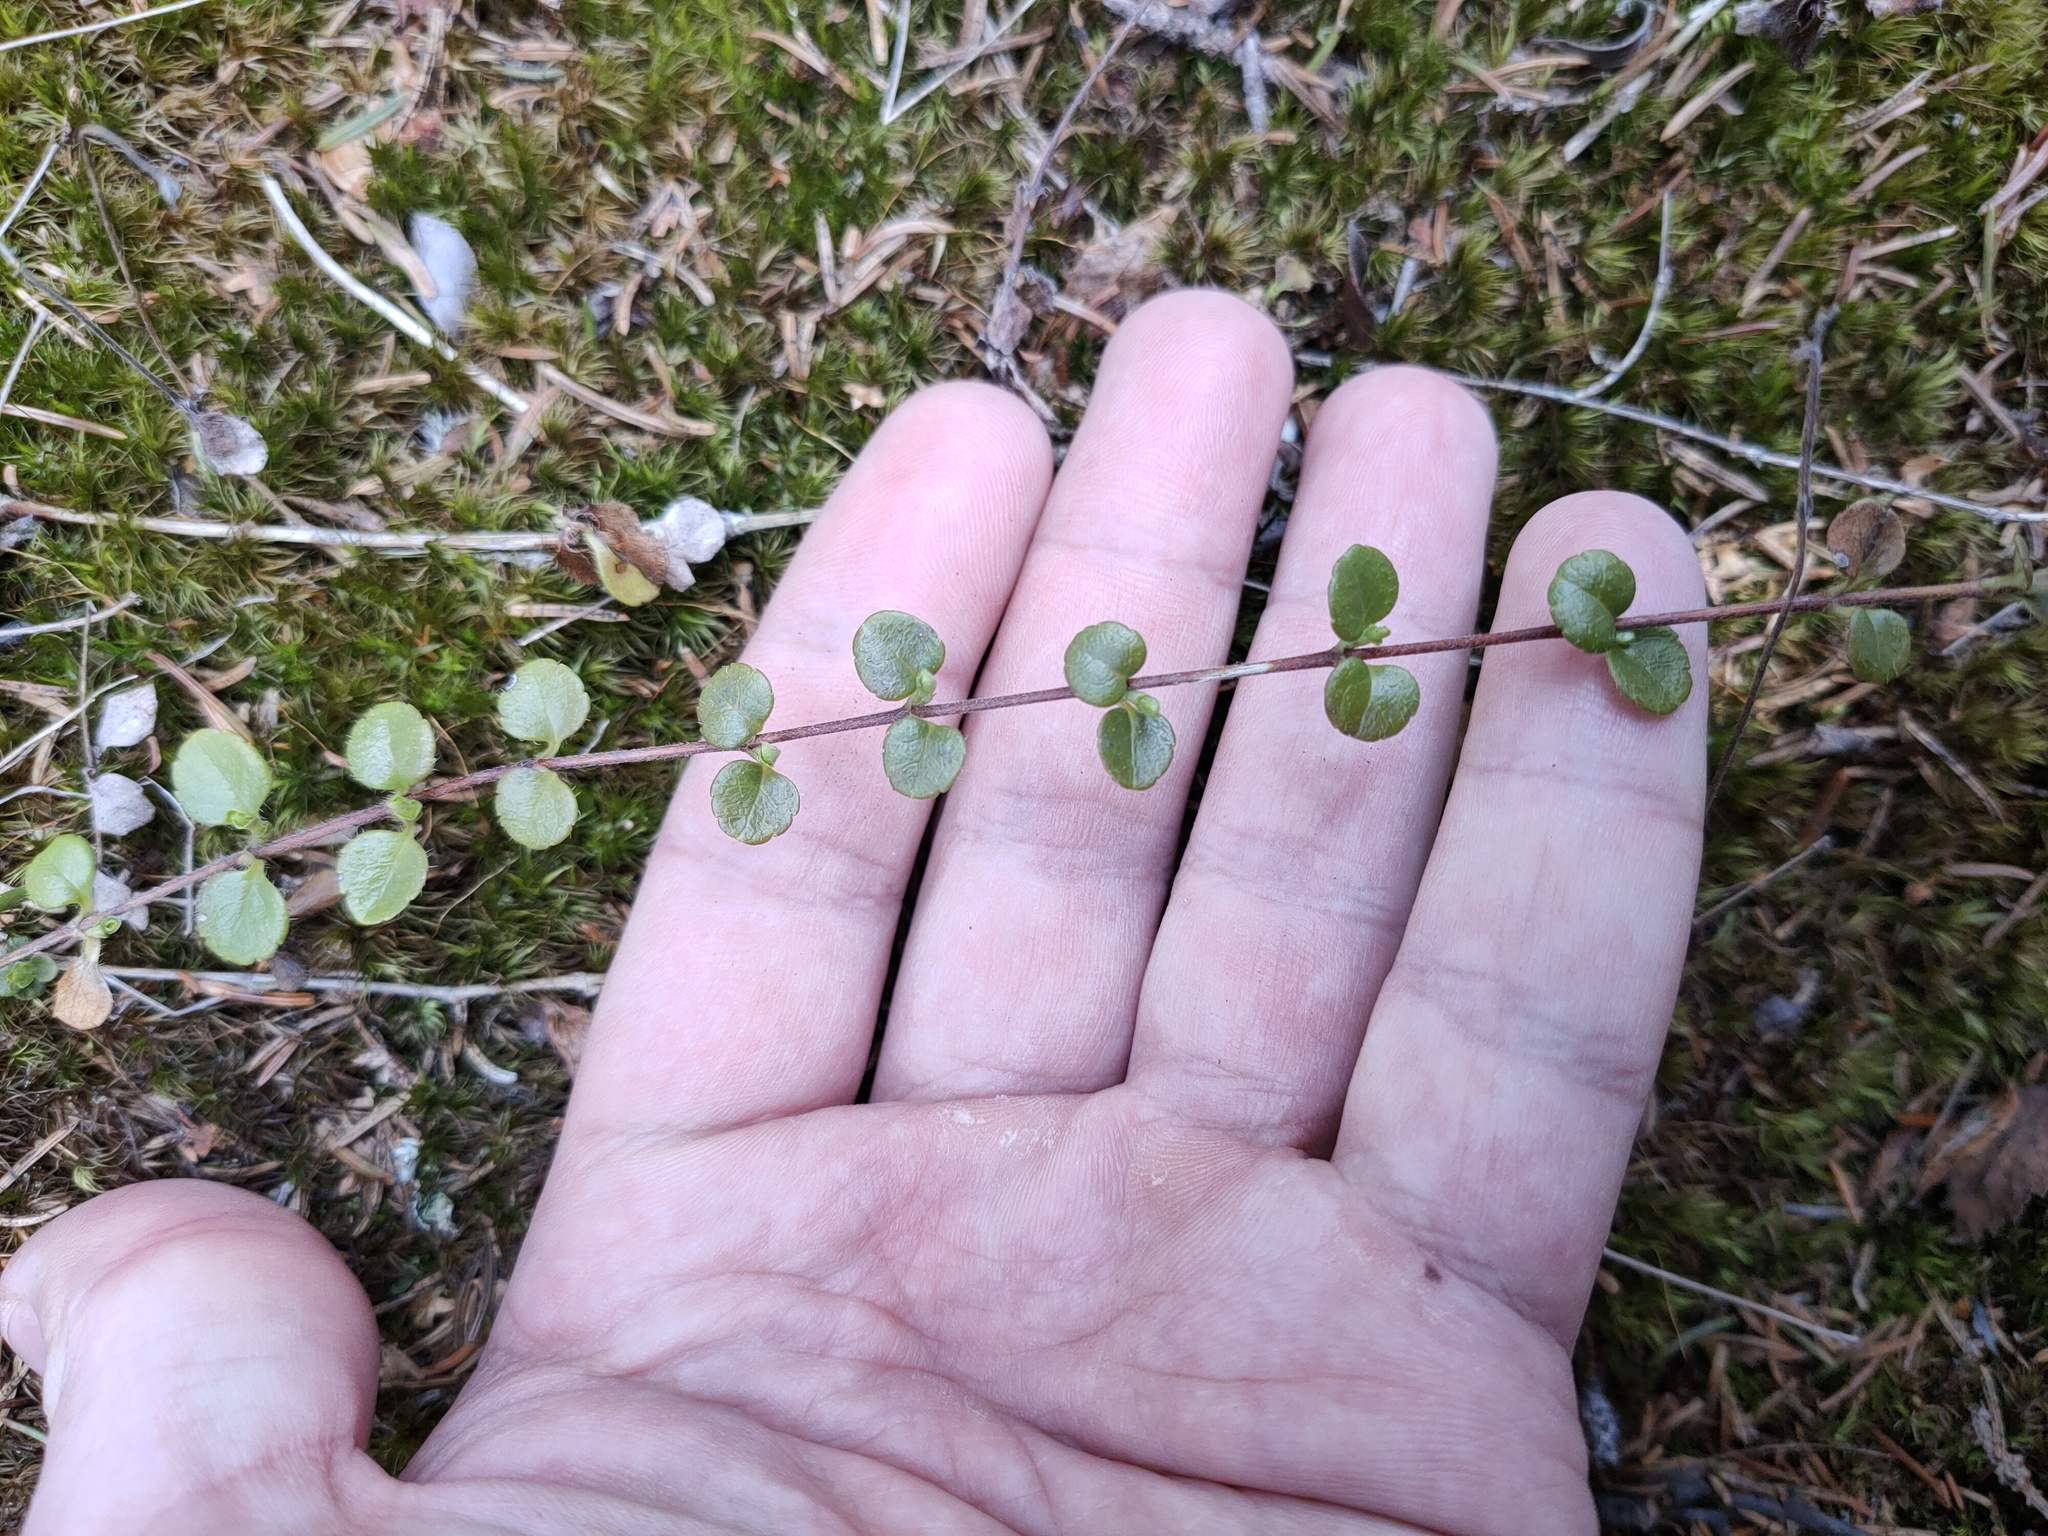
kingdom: Plantae
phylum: Tracheophyta
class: Magnoliopsida
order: Dipsacales
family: Caprifoliaceae
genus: Linnaea
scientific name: Linnaea borealis
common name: Twinflower
